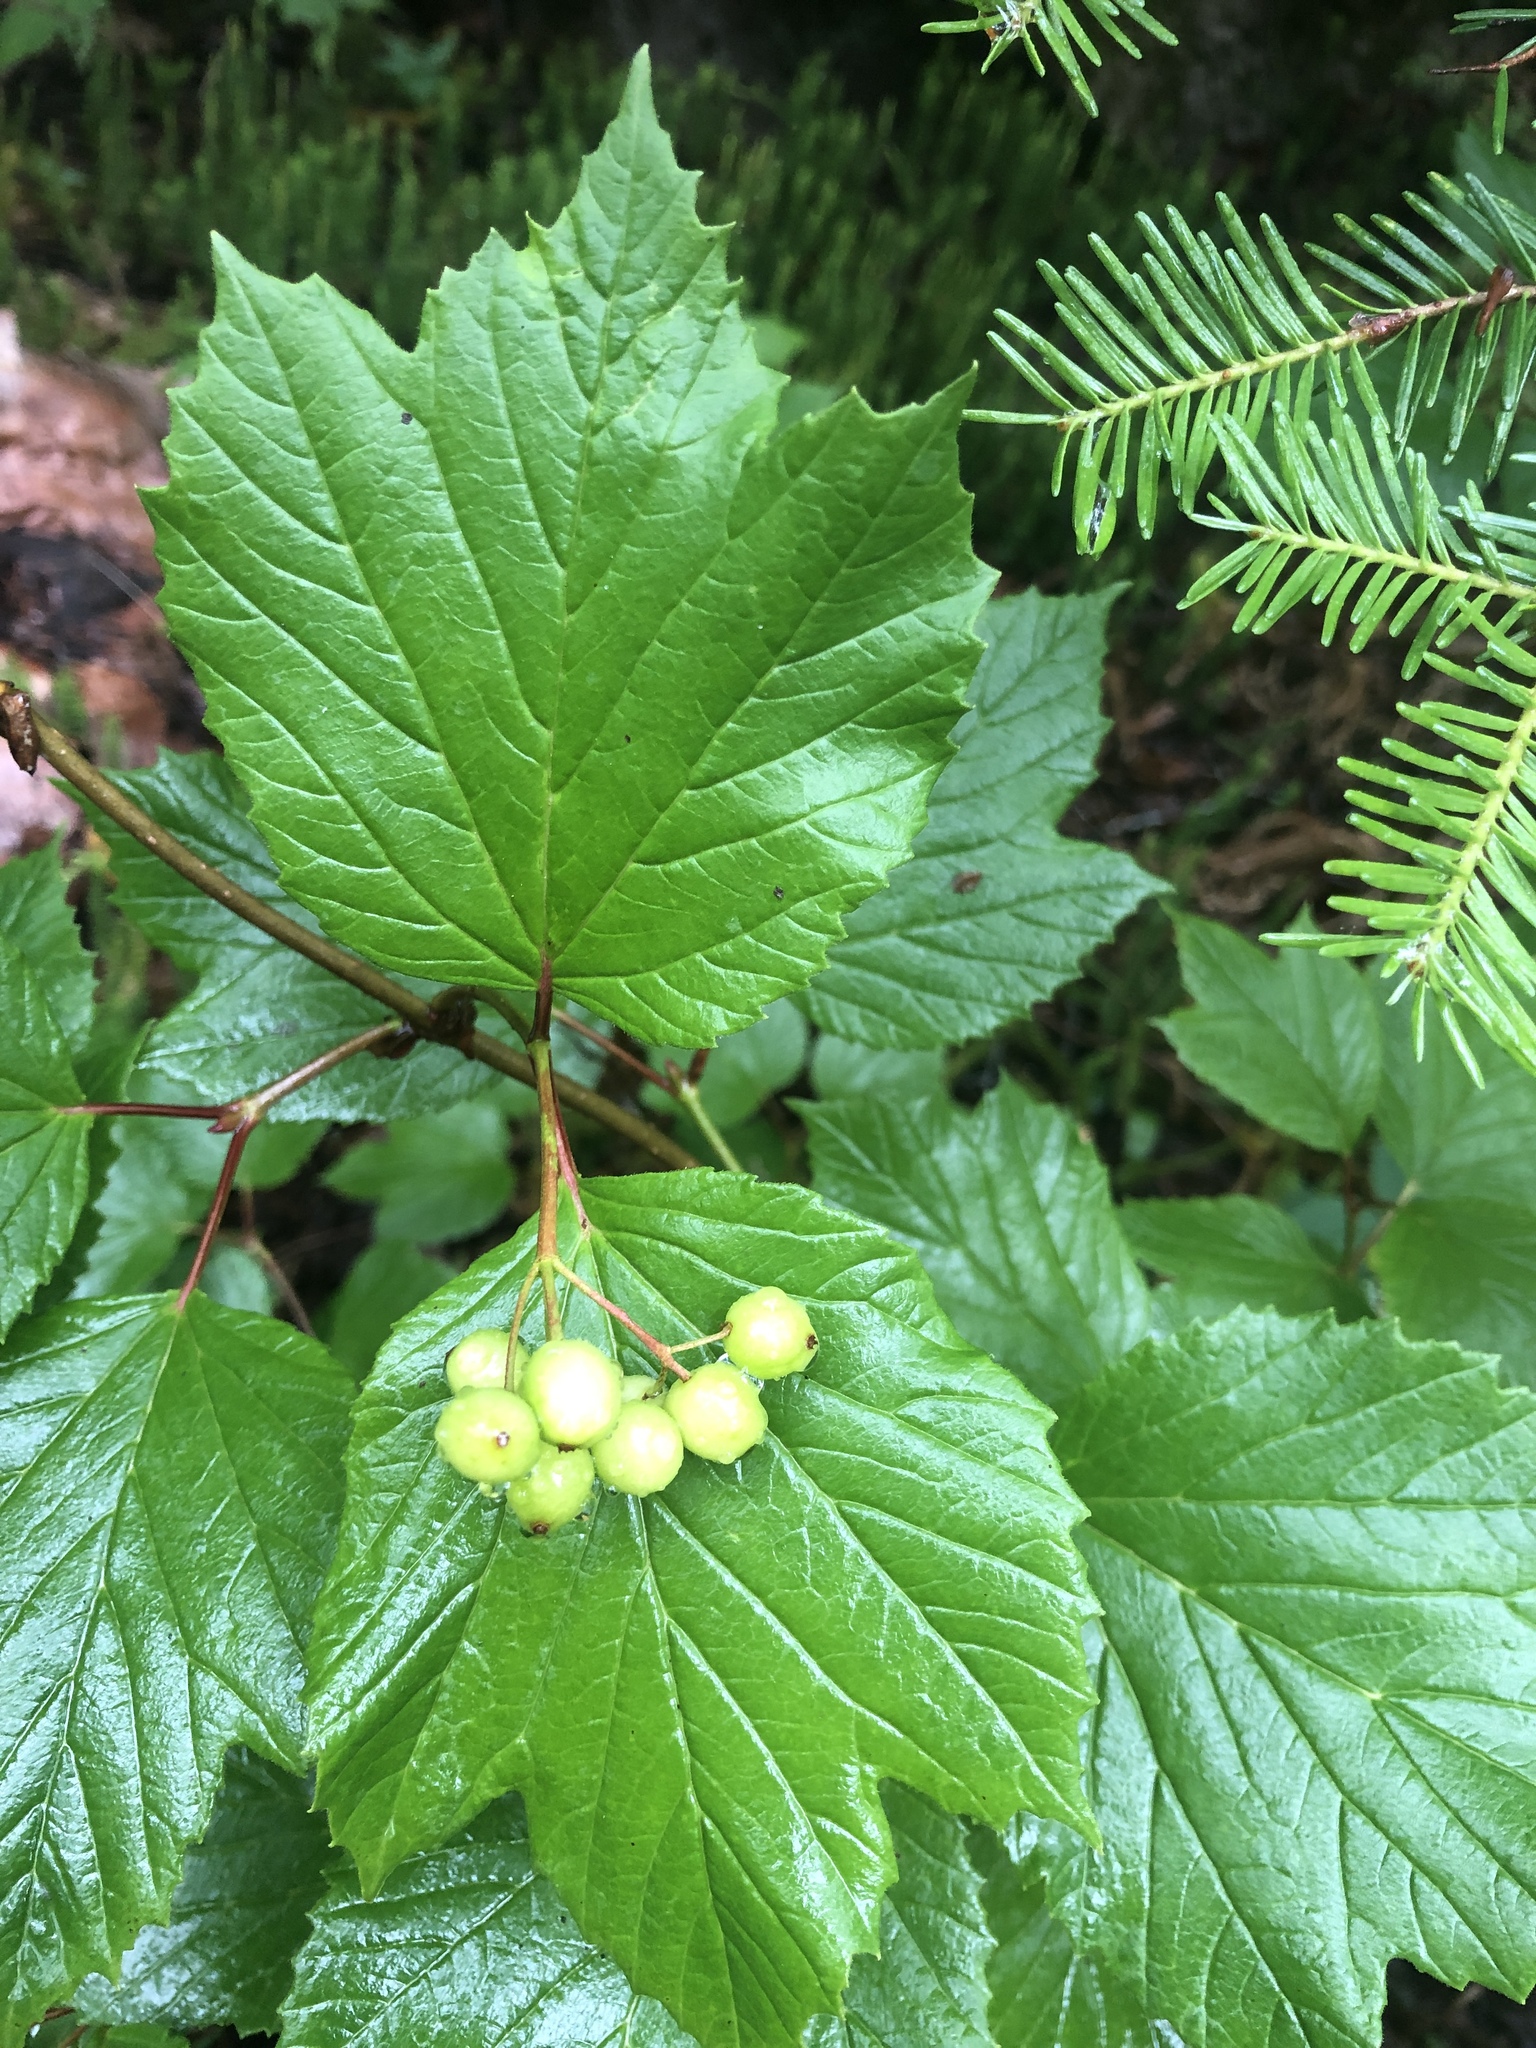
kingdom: Plantae
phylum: Tracheophyta
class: Magnoliopsida
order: Dipsacales
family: Viburnaceae
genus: Viburnum
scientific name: Viburnum edule
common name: Mooseberry
